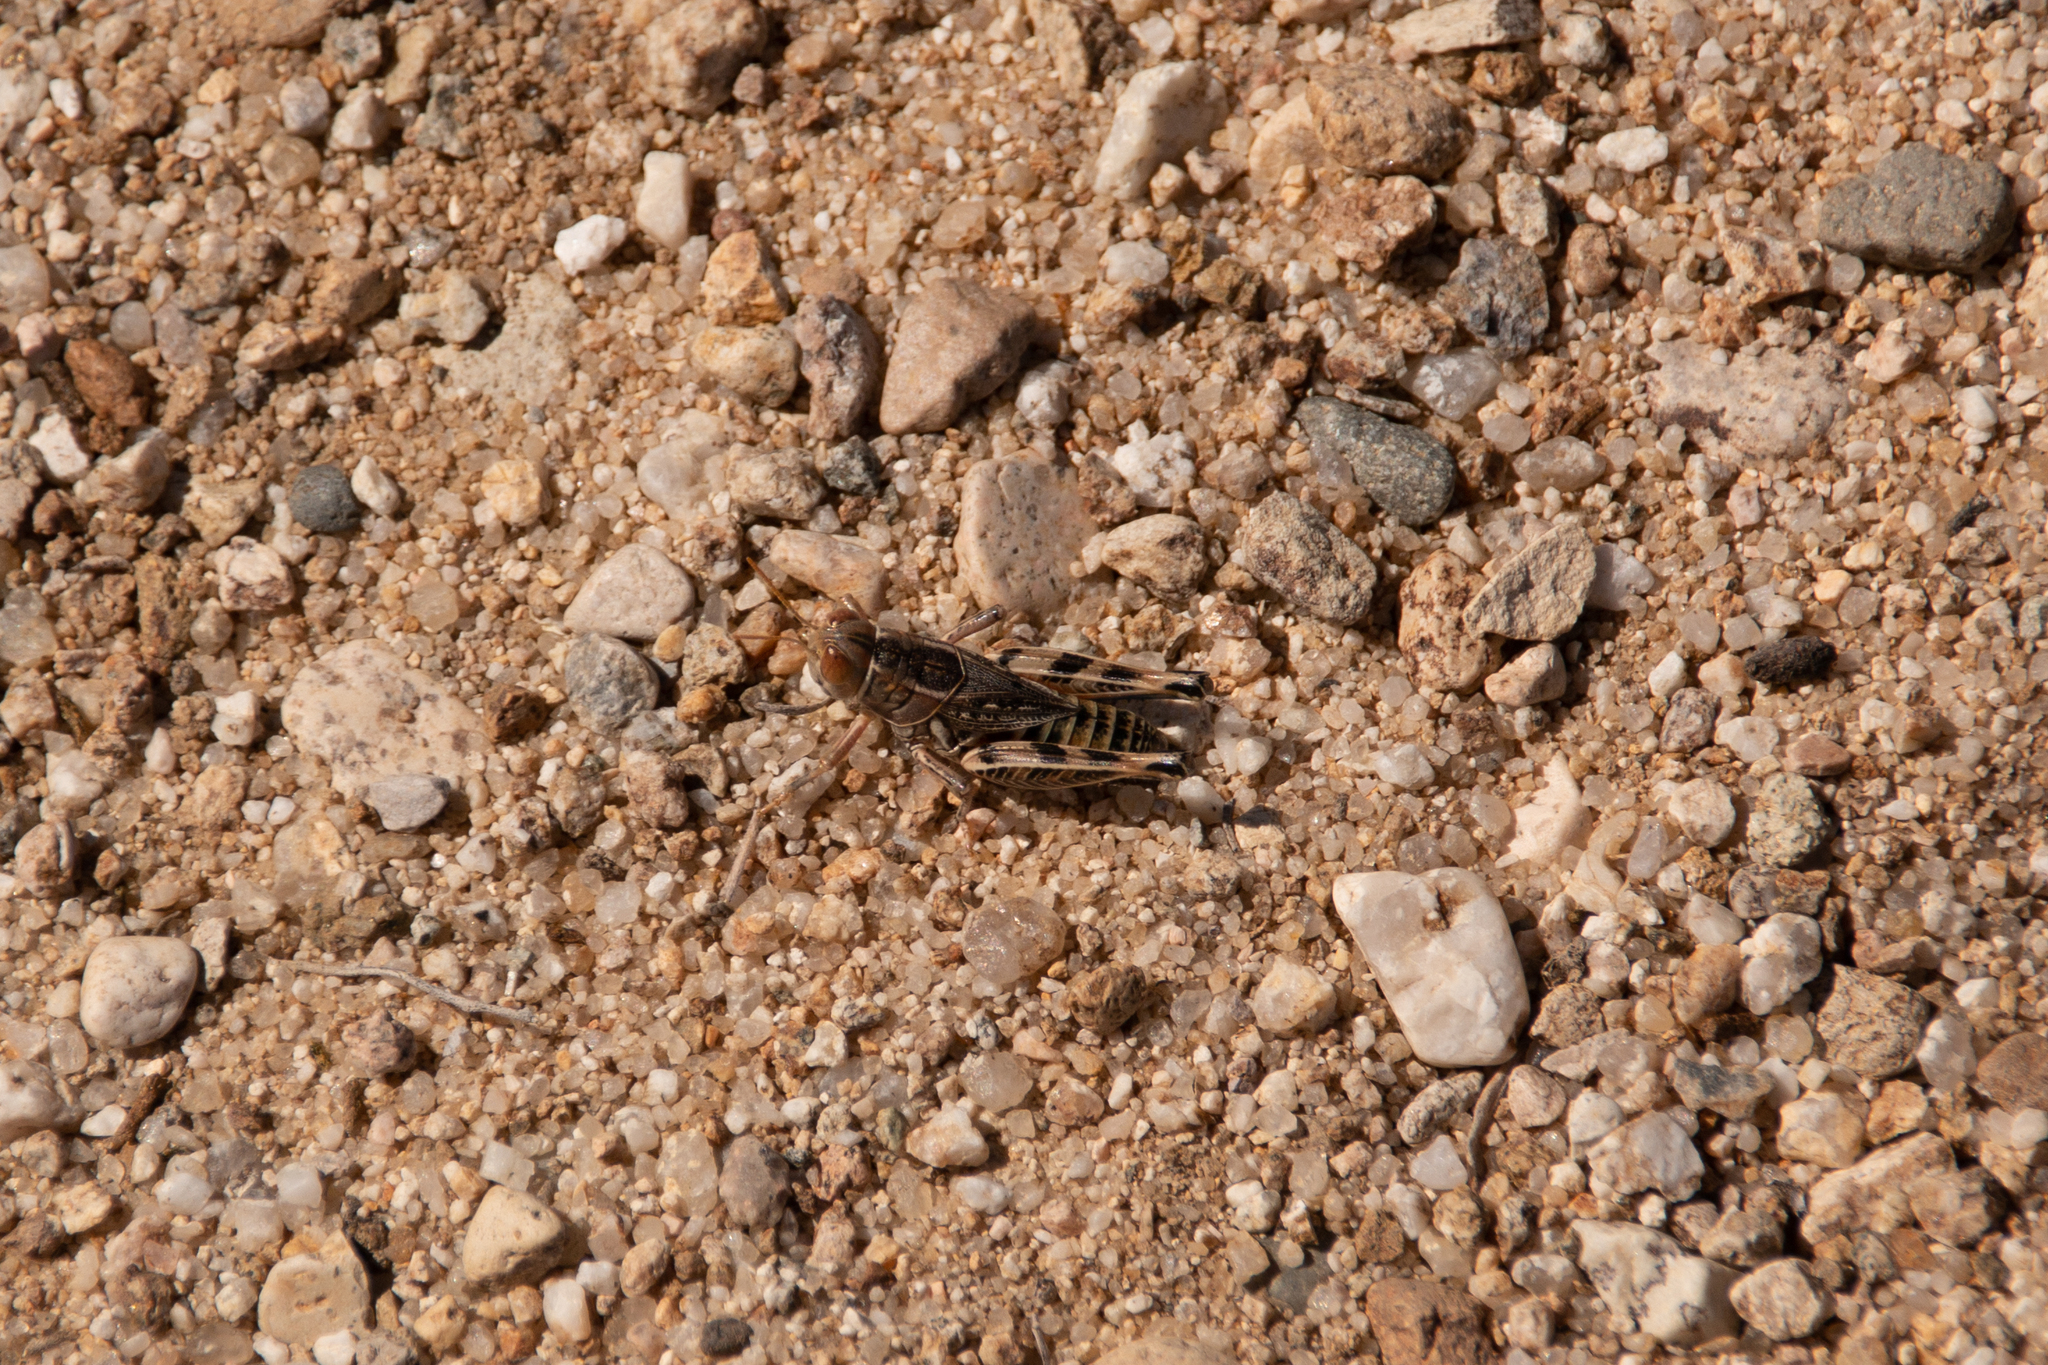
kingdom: Animalia
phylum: Arthropoda
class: Insecta
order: Orthoptera
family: Acrididae
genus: Oedaleonotus
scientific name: Oedaleonotus enigma
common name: Valley grasshopper
